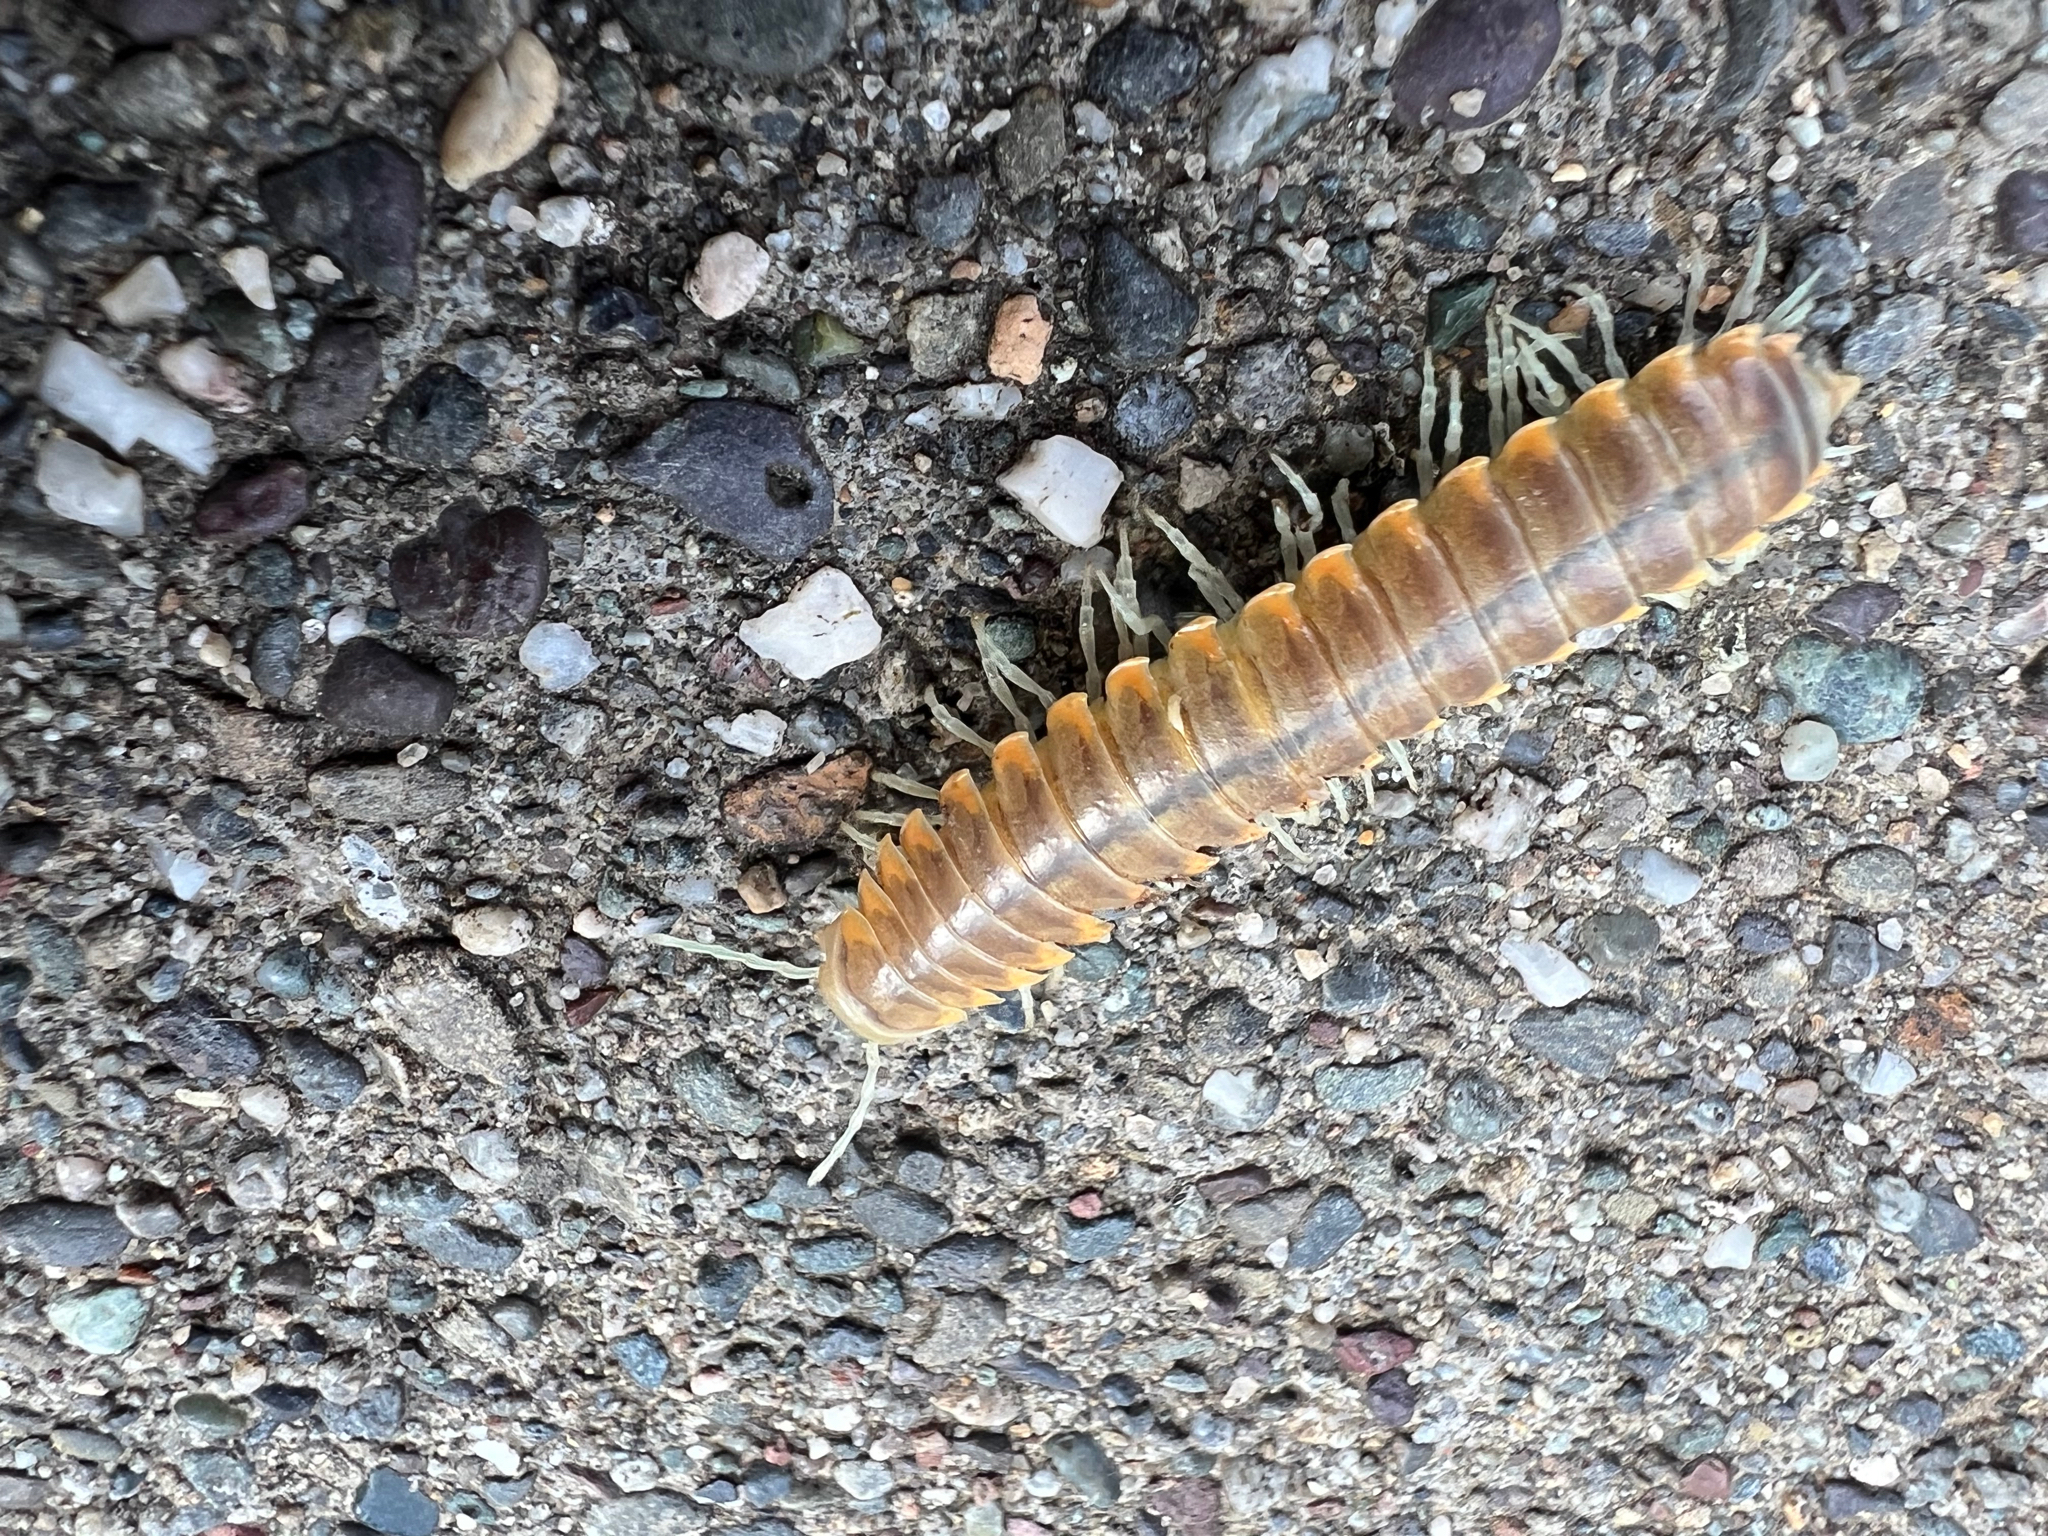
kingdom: Animalia
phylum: Arthropoda
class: Diplopoda
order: Polydesmida
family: Xystodesmidae
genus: Xystocheir
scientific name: Xystocheir dissecta
